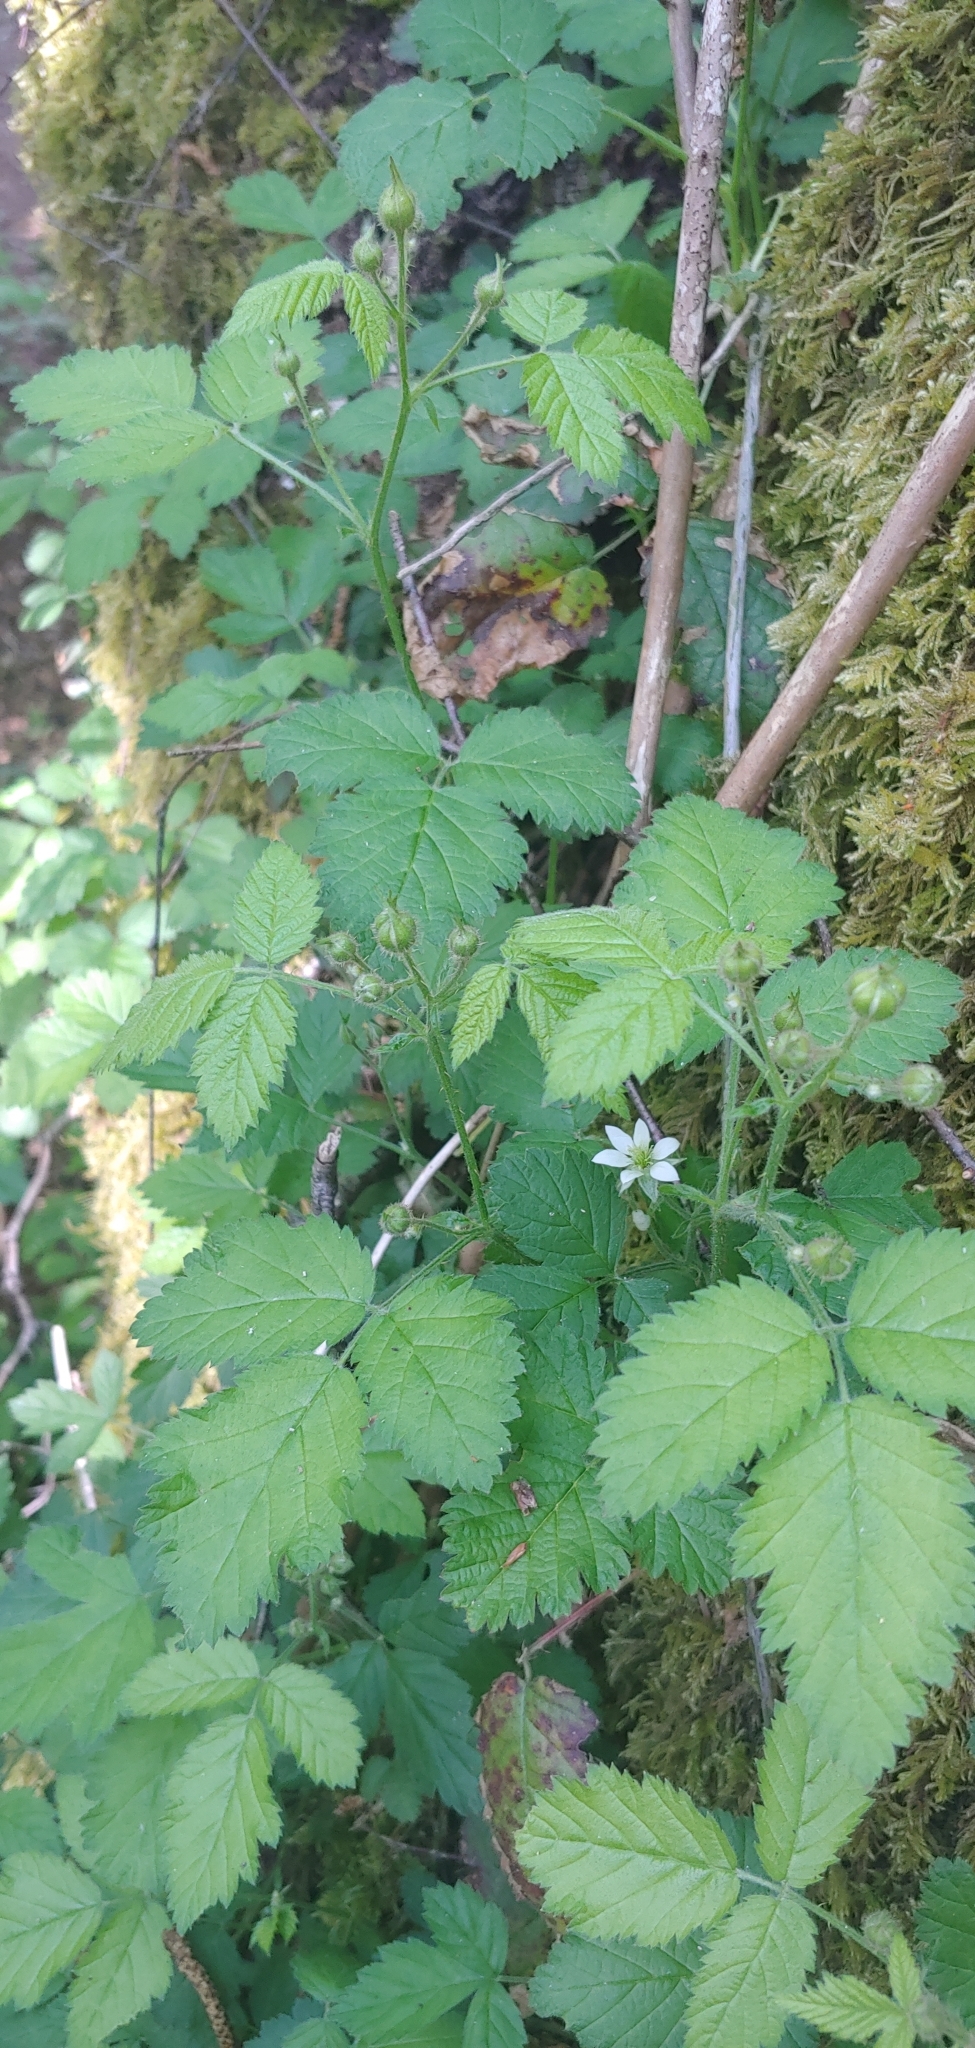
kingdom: Plantae
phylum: Tracheophyta
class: Magnoliopsida
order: Rosales
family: Rosaceae
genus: Rubus
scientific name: Rubus ursinus
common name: Pacific blackberry
